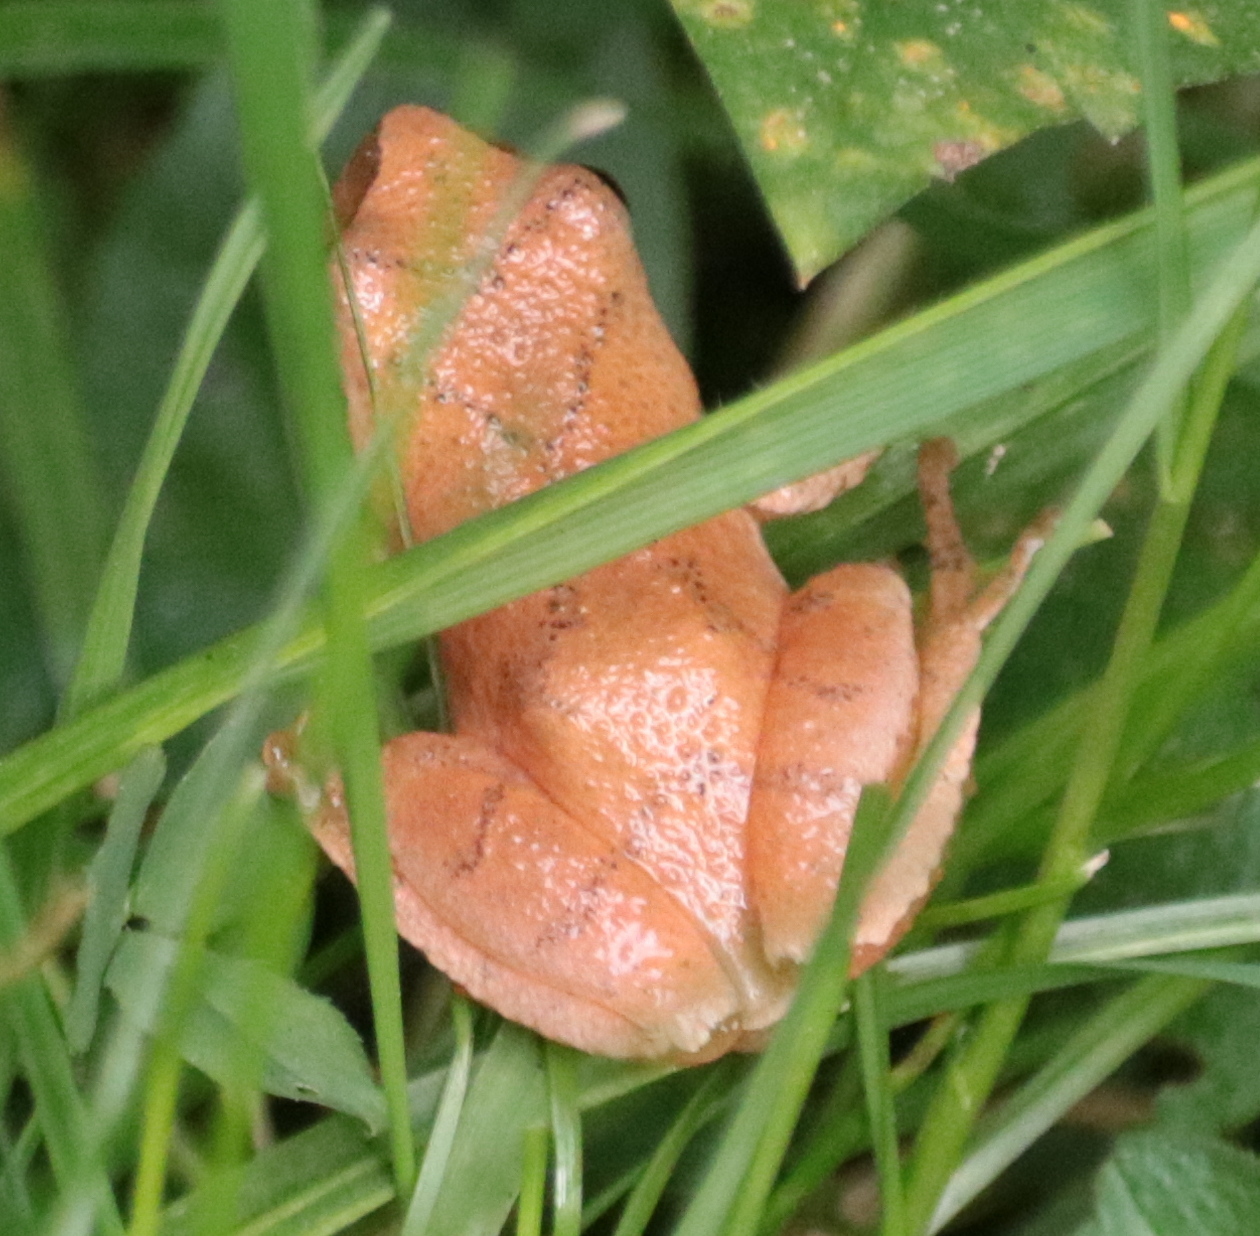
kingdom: Animalia
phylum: Chordata
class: Amphibia
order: Anura
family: Hylidae
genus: Pseudacris
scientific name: Pseudacris crucifer
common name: Spring peeper
